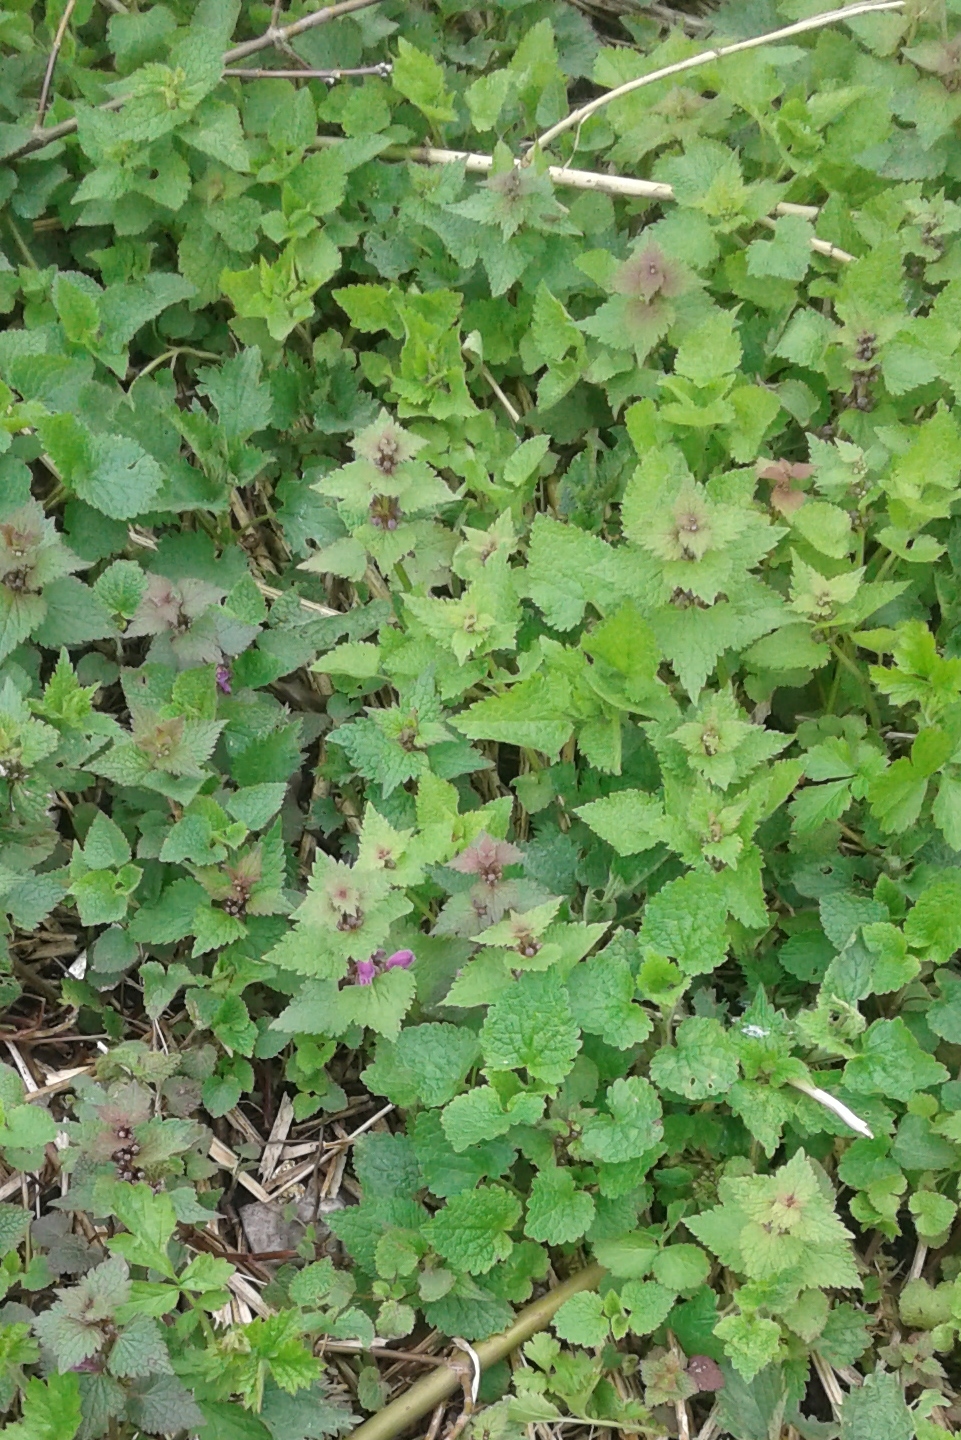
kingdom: Plantae
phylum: Tracheophyta
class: Magnoliopsida
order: Lamiales
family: Lamiaceae
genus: Lamium
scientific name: Lamium maculatum
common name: Spotted dead-nettle
